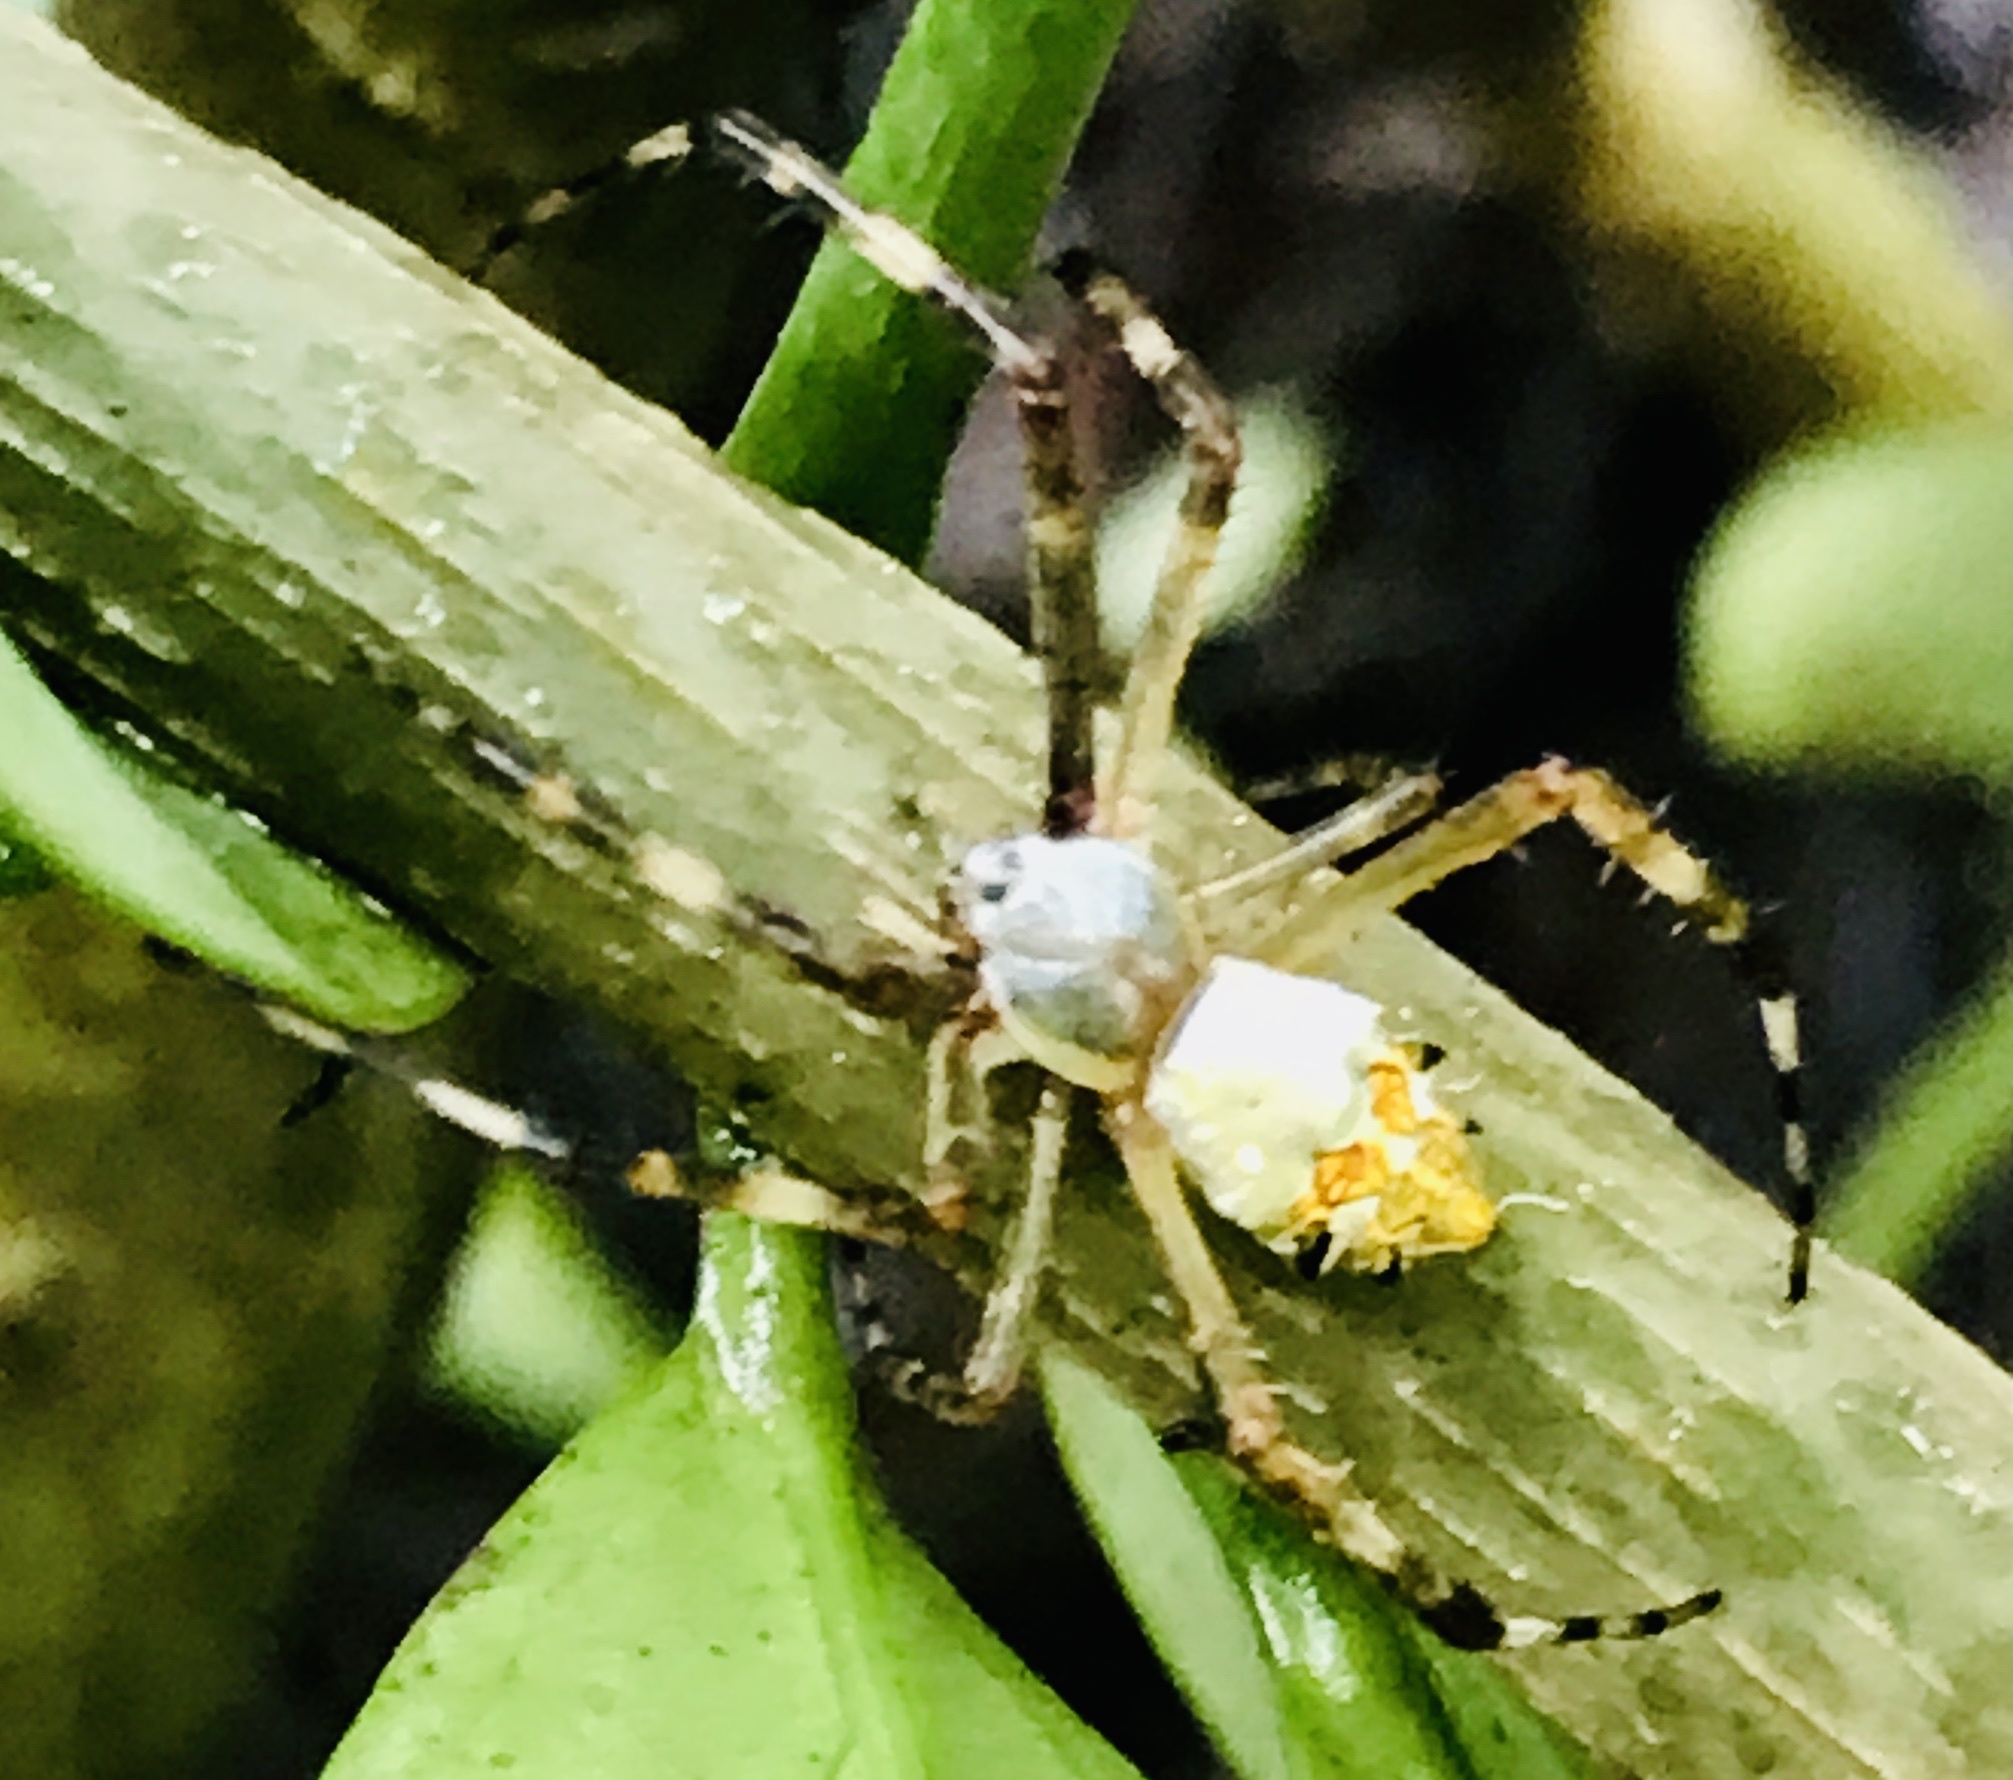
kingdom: Animalia
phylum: Arthropoda
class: Arachnida
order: Araneae
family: Araneidae
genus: Argiope
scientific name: Argiope argentata
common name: Orb weavers
